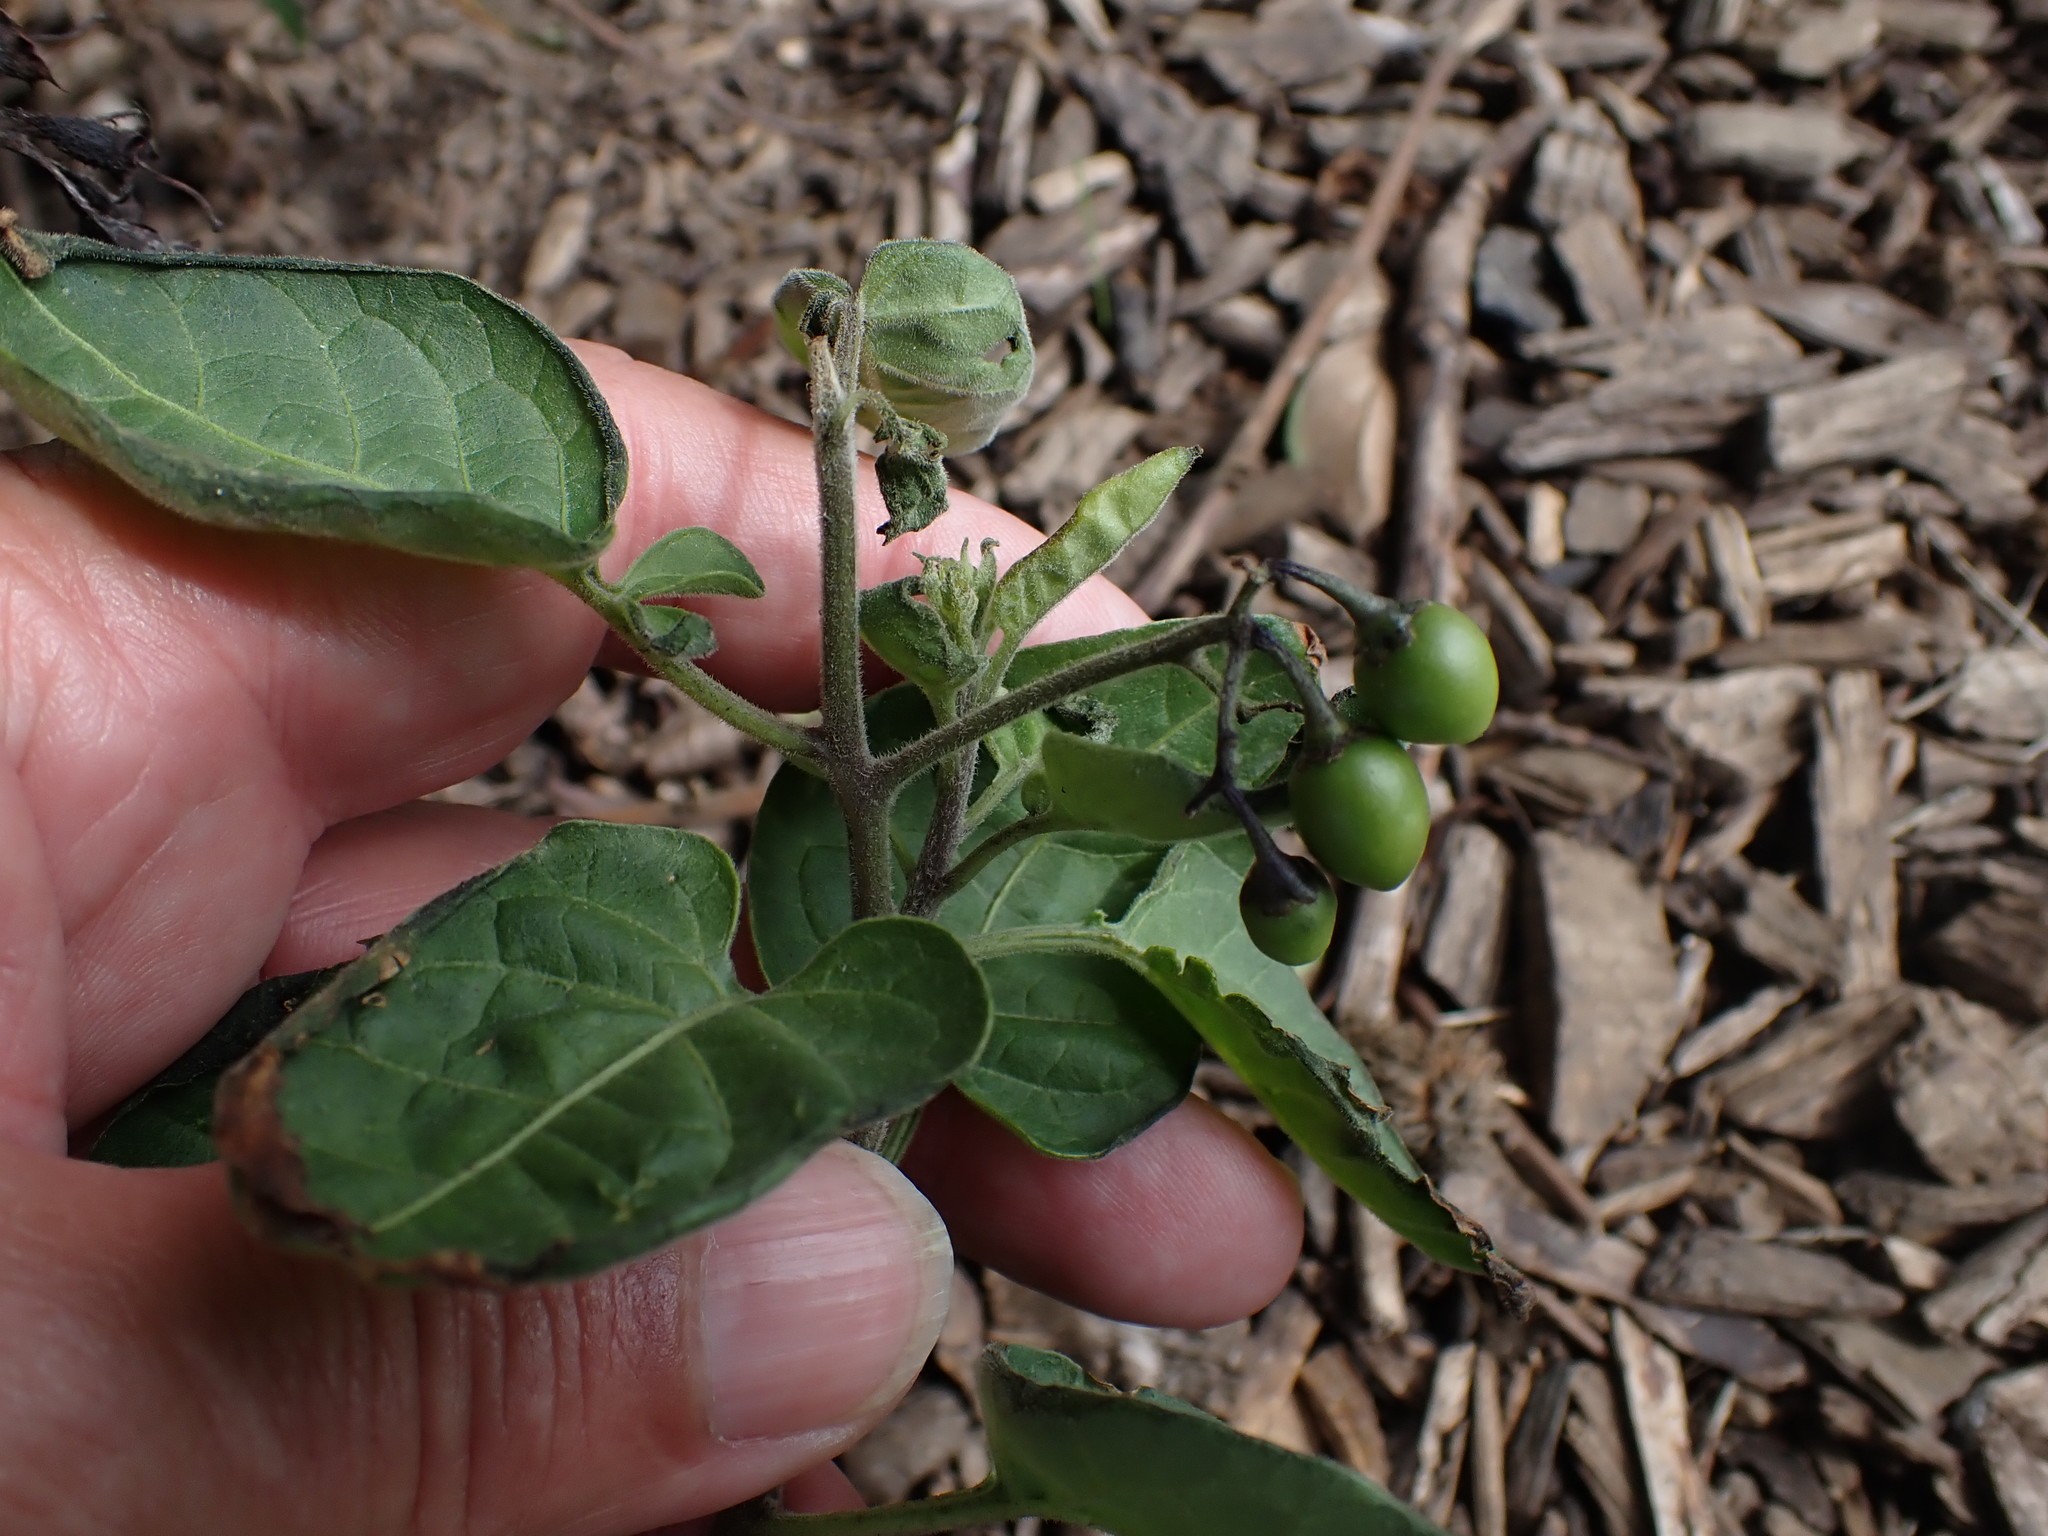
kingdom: Plantae
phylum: Tracheophyta
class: Magnoliopsida
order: Solanales
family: Solanaceae
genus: Solanum
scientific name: Solanum nigrum
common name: Black nightshade
